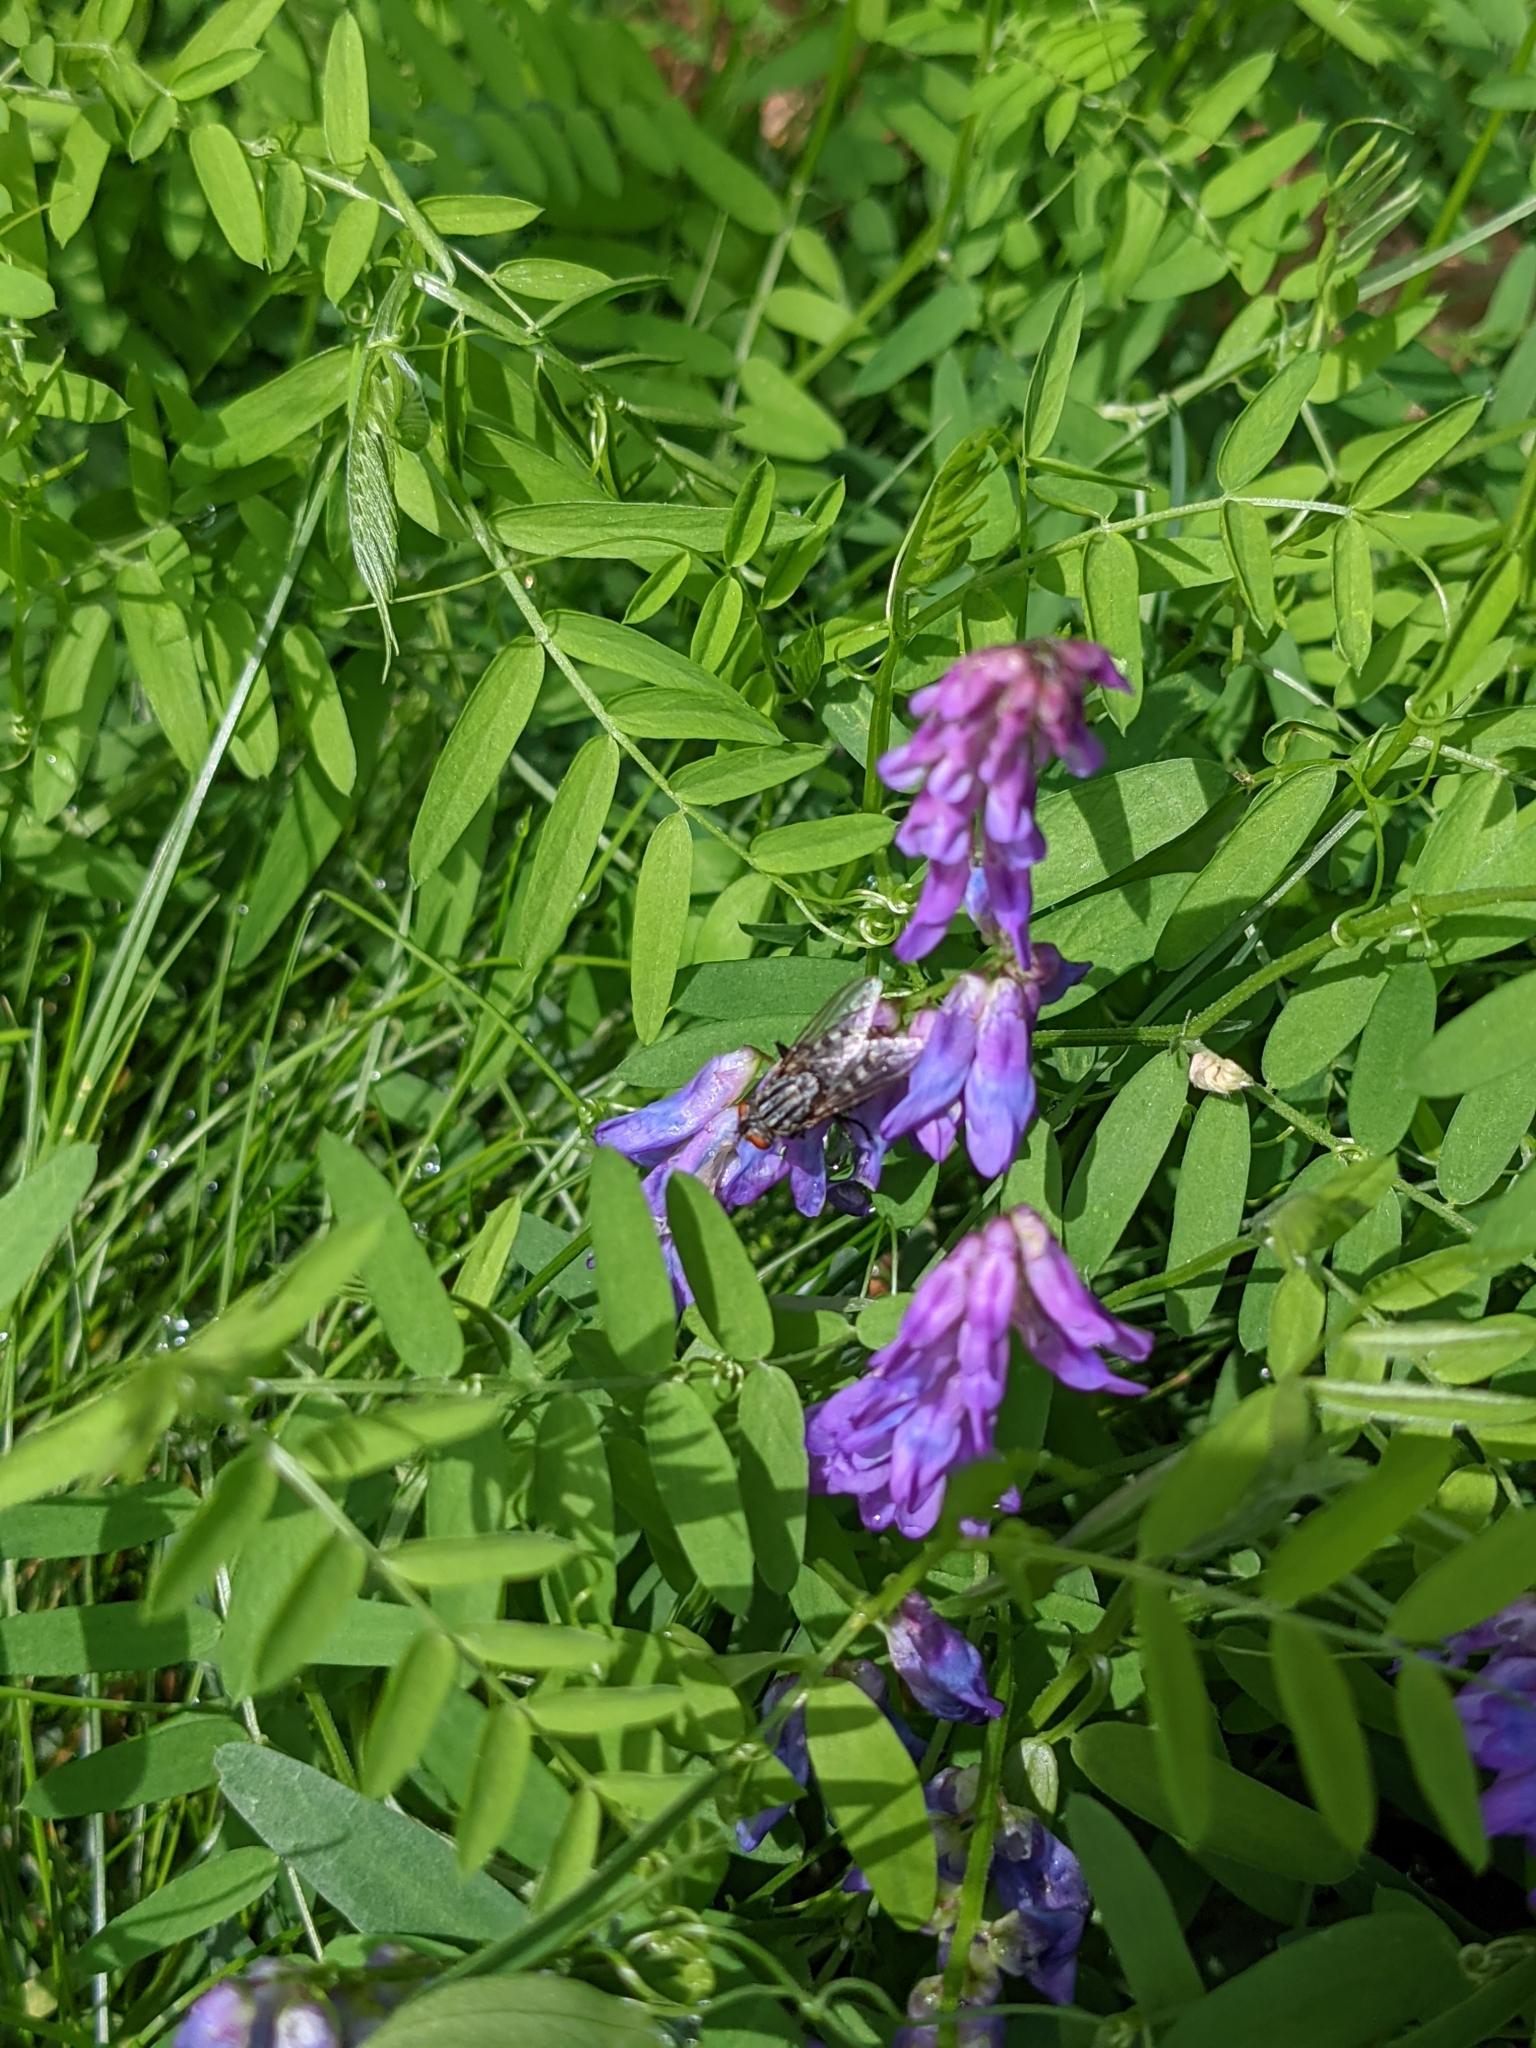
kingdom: Plantae
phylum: Tracheophyta
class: Magnoliopsida
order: Fabales
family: Fabaceae
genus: Vicia
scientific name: Vicia cracca
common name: Bird vetch
